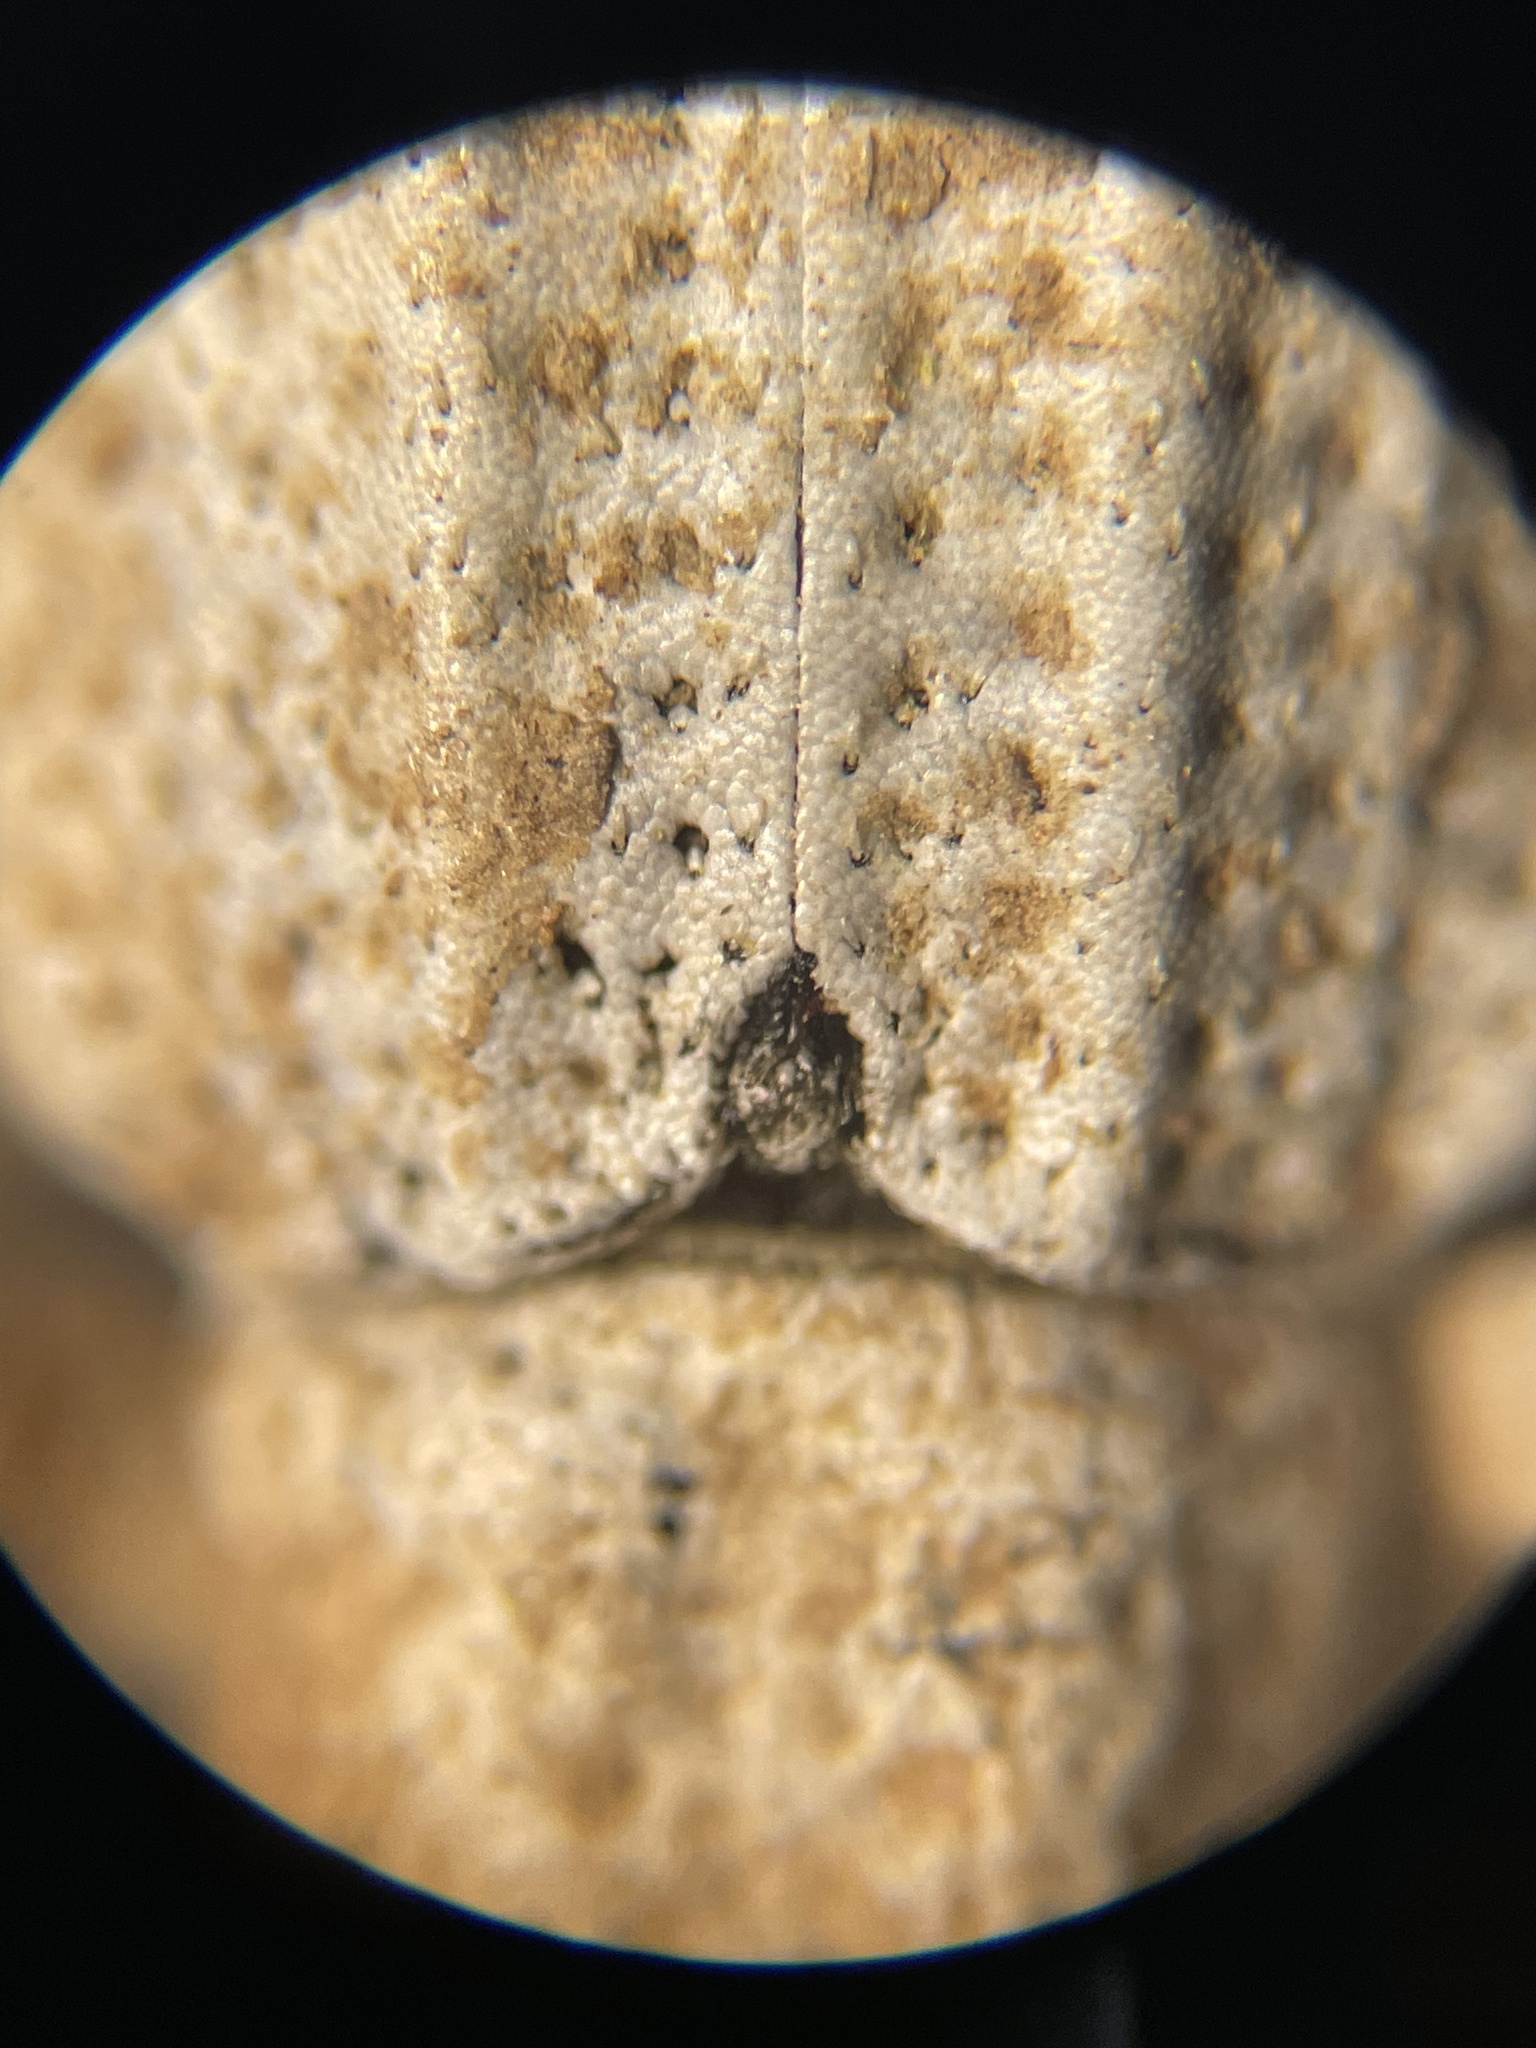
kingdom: Animalia
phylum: Arthropoda
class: Insecta
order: Coleoptera
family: Curculionidae
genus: Compsus
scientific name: Compsus auricephalus
